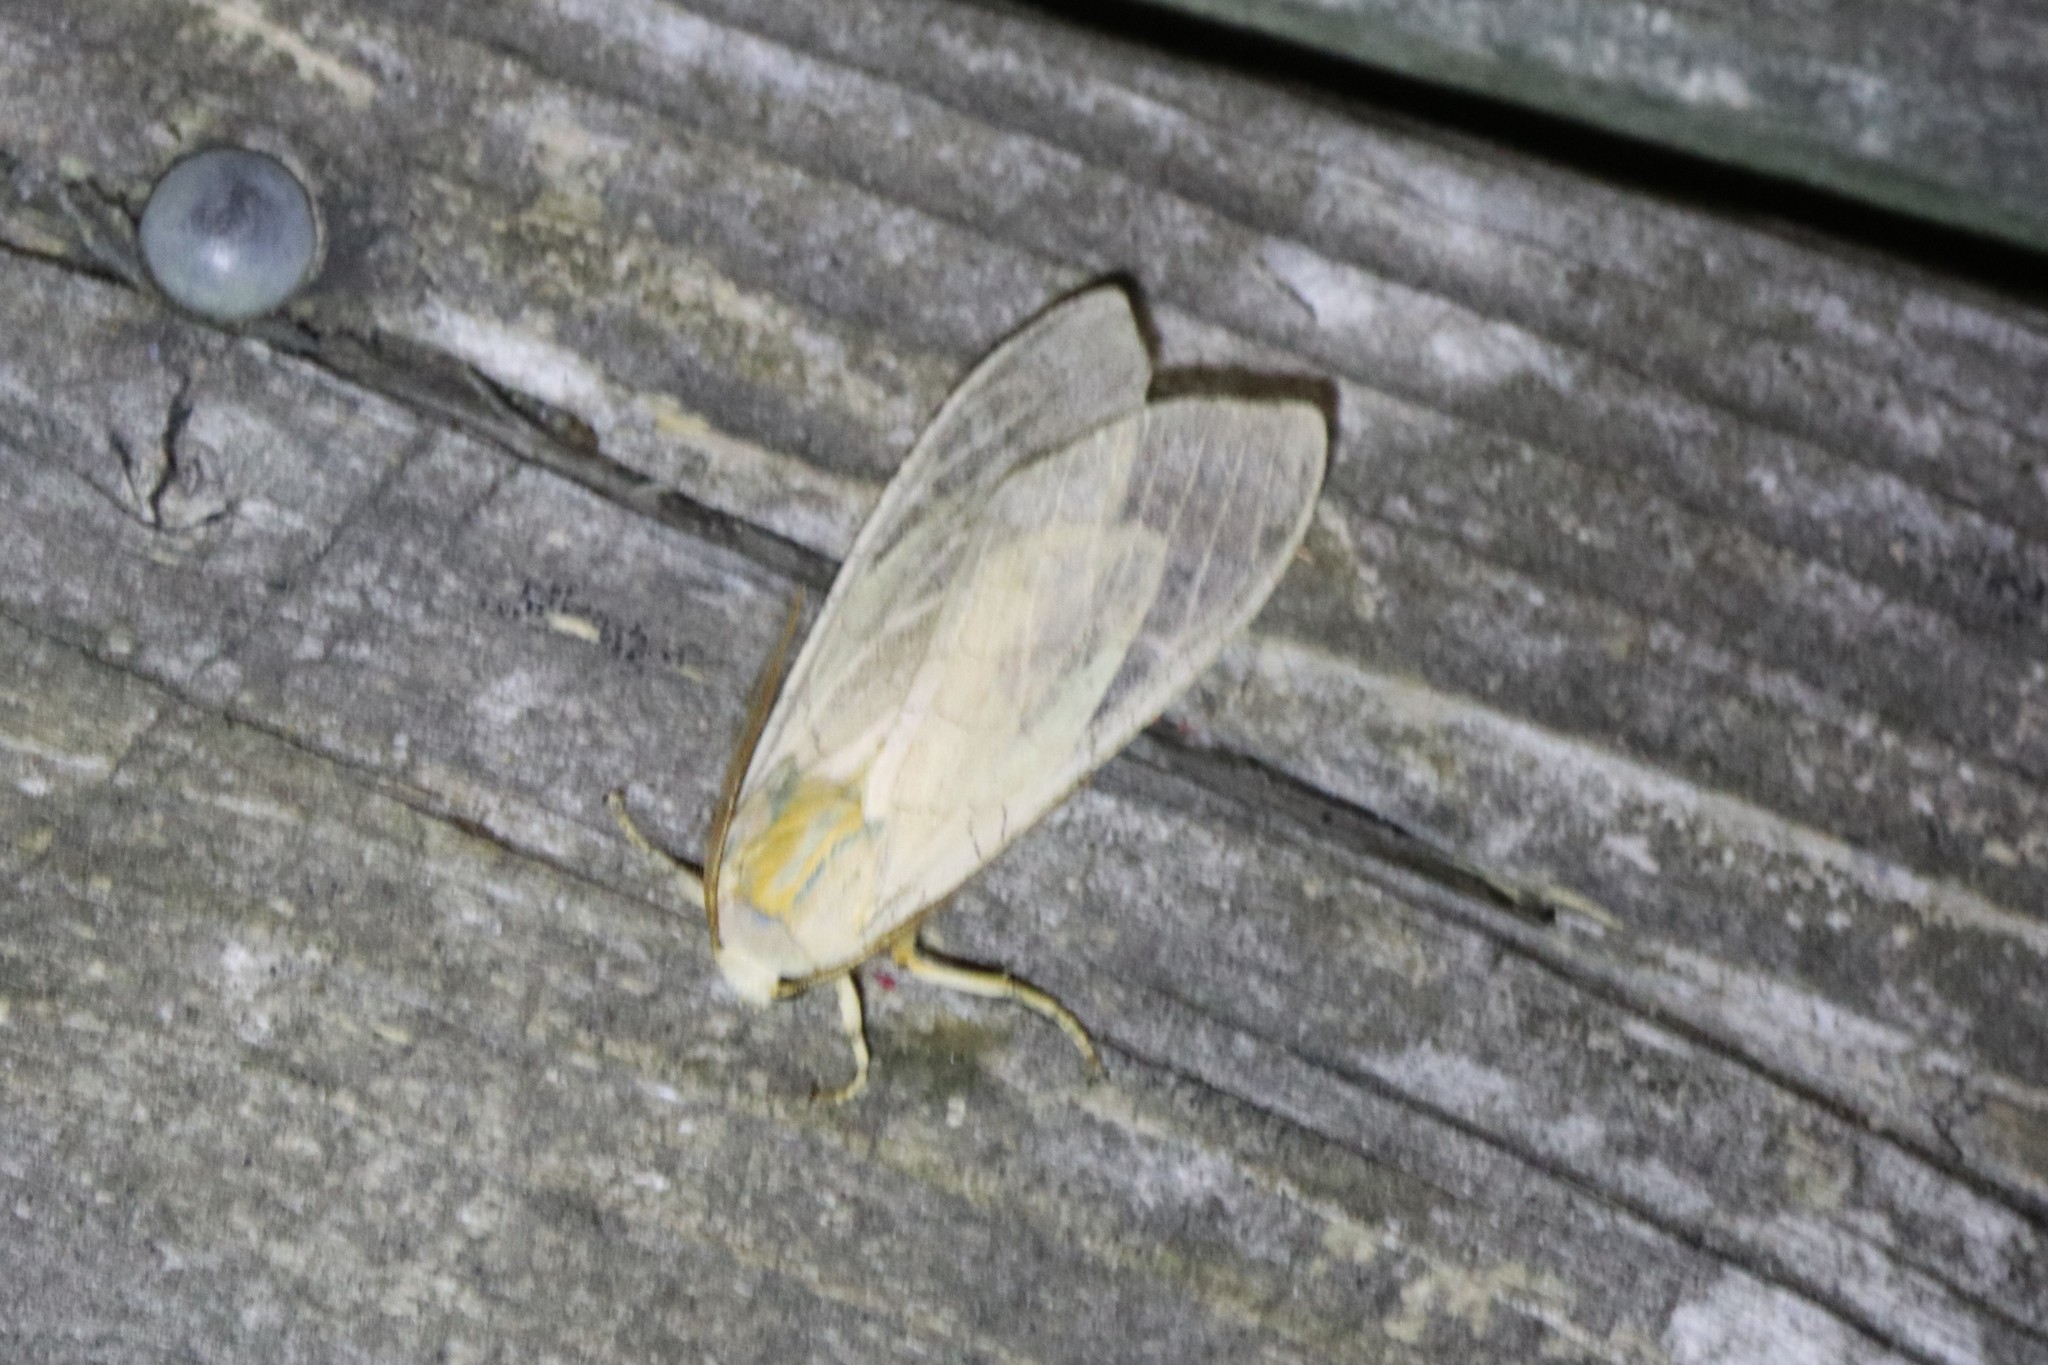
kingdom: Animalia
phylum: Arthropoda
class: Insecta
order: Lepidoptera
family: Erebidae
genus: Halysidota
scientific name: Halysidota tessellaris
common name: Banded tussock moth
